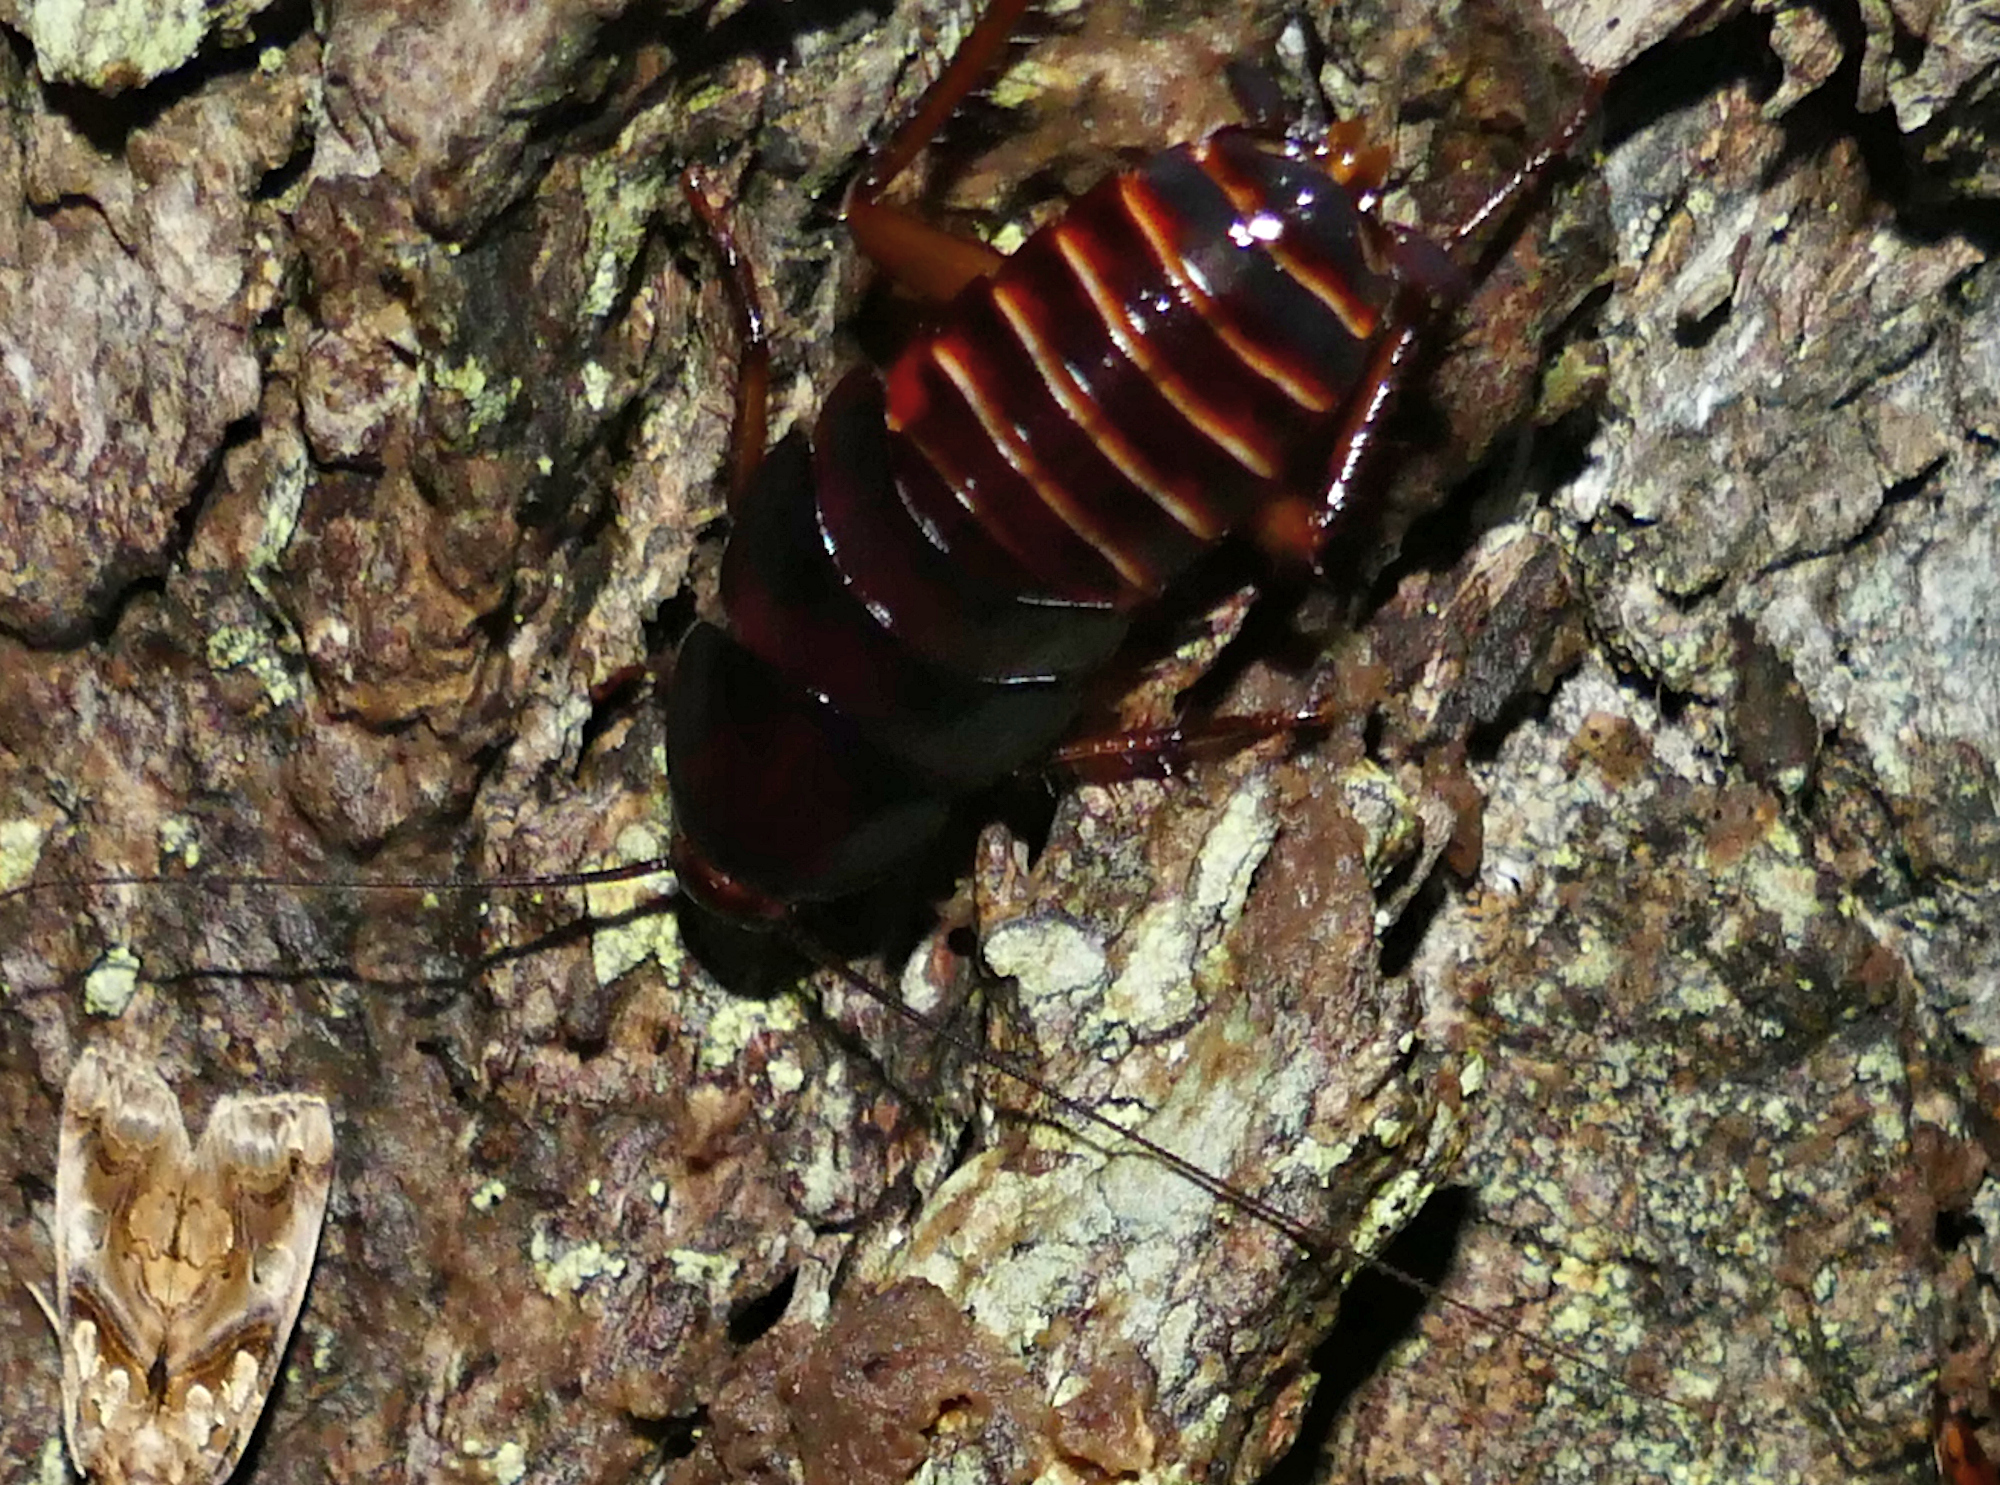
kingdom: Animalia
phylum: Arthropoda
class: Insecta
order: Blattodea
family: Blattidae
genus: Periplaneta
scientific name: Periplaneta fuliginosa
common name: Smokeybrown cockroad
